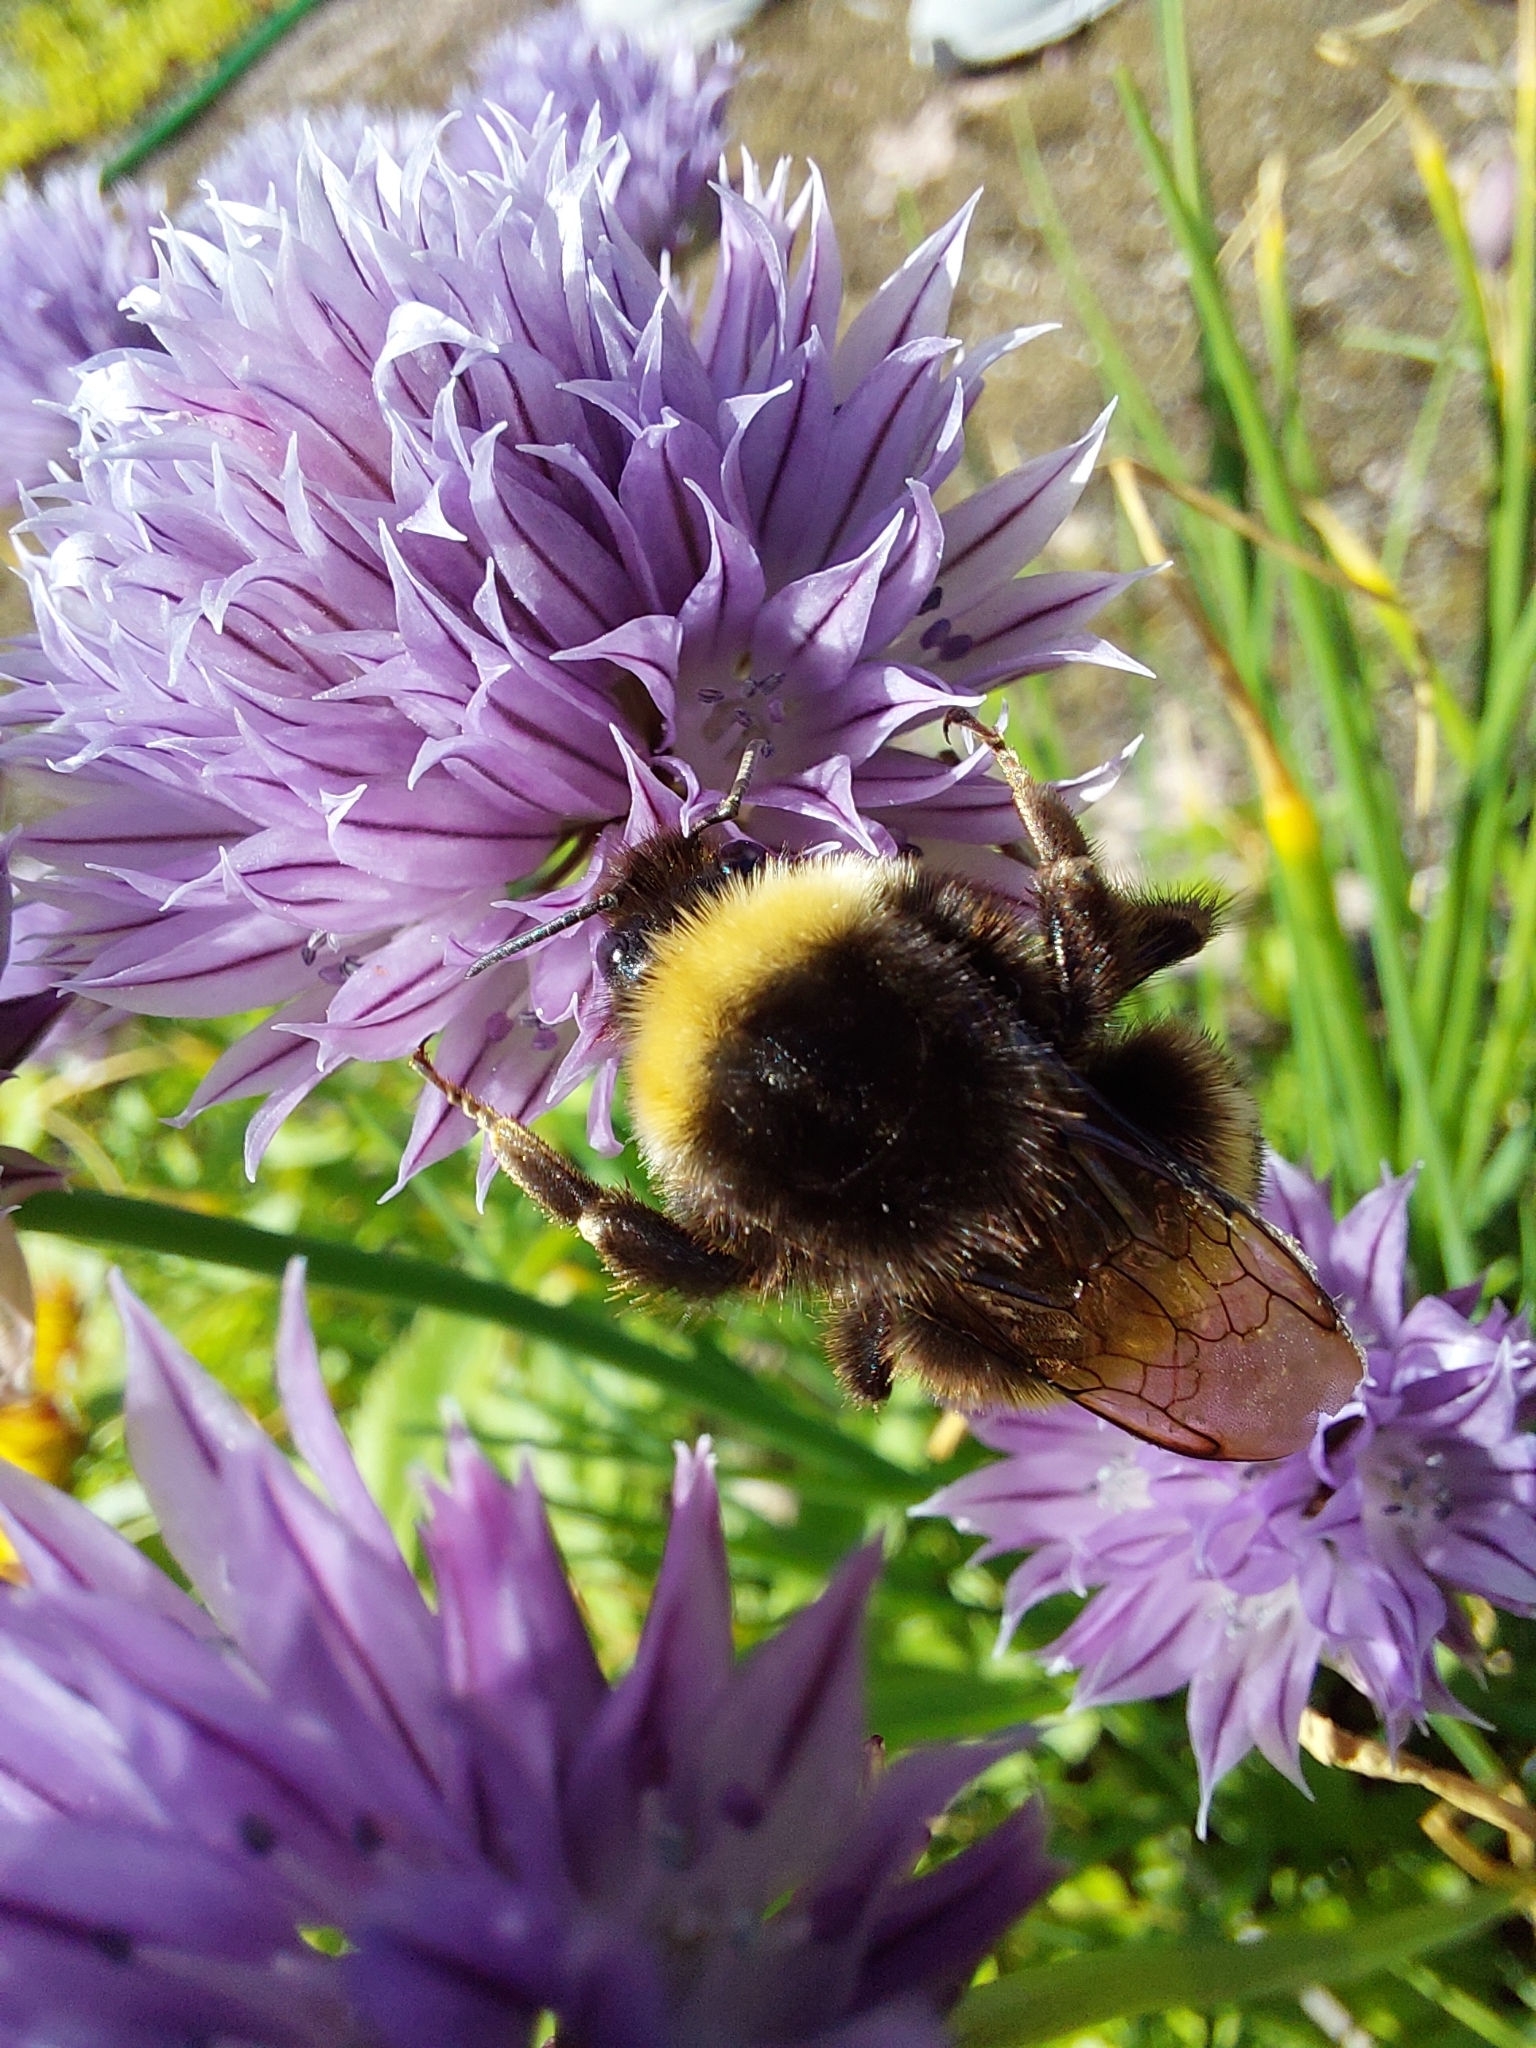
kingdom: Animalia
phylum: Arthropoda
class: Insecta
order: Hymenoptera
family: Apidae
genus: Bombus
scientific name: Bombus
